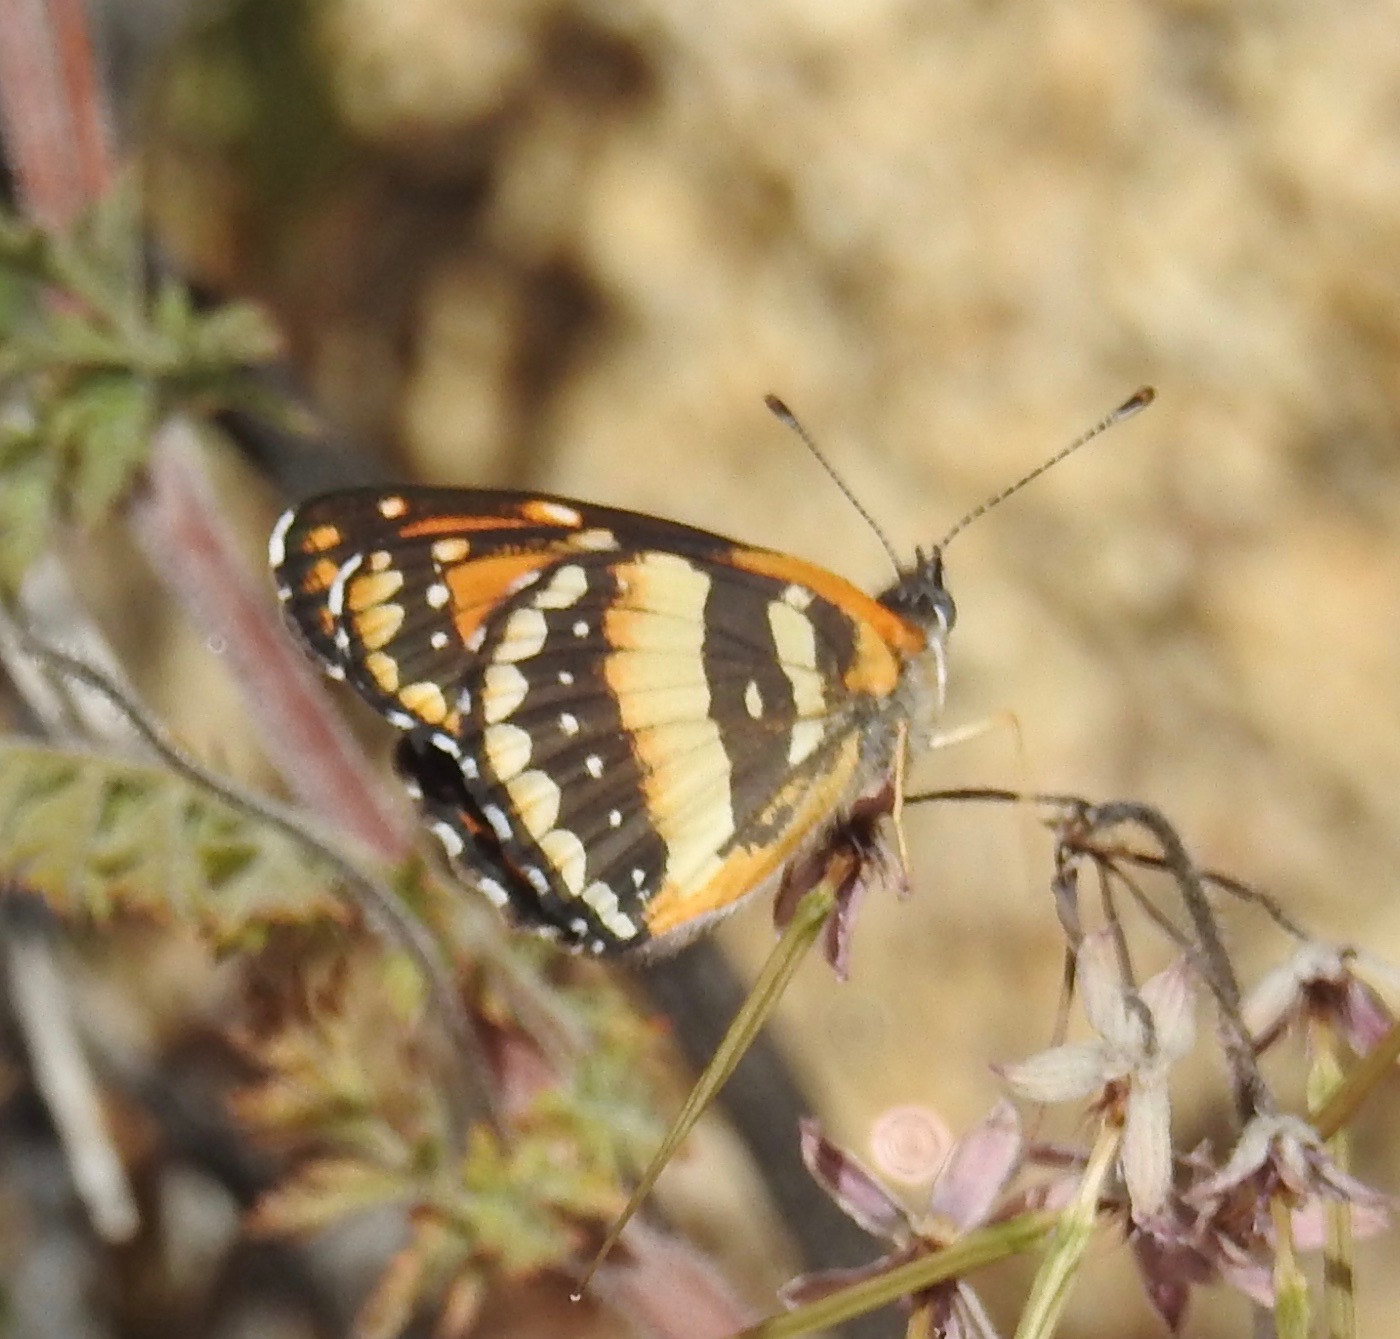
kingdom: Animalia
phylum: Arthropoda
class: Insecta
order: Lepidoptera
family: Nymphalidae
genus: Chlosyne
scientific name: Chlosyne californica
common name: California patch
